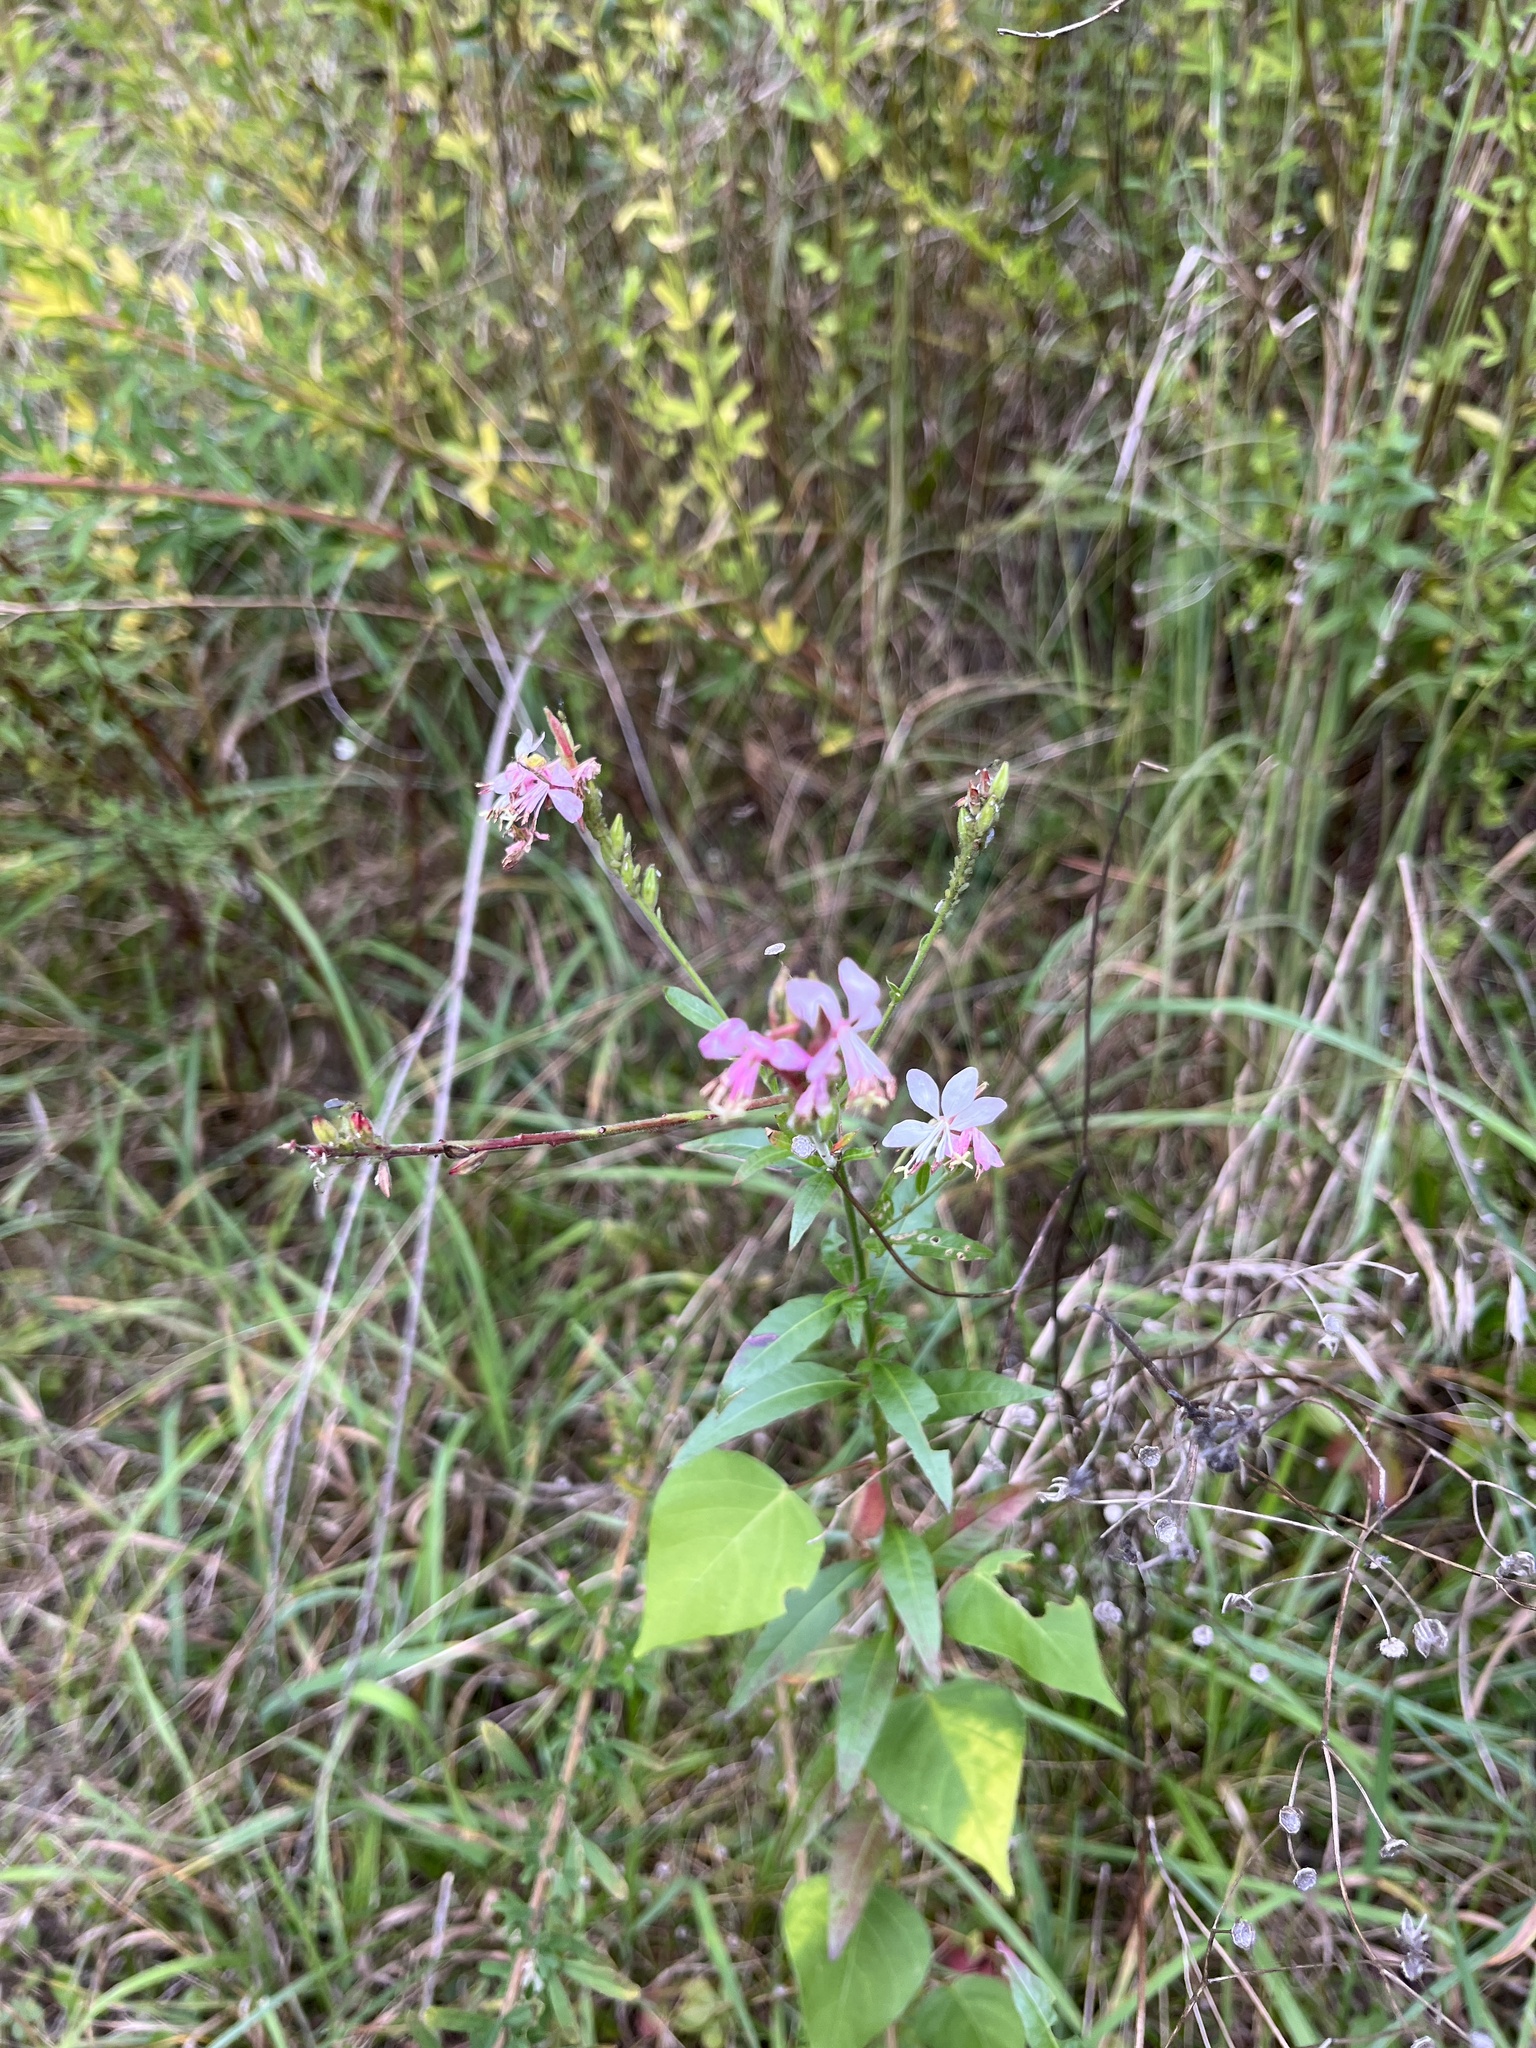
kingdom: Plantae
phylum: Tracheophyta
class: Magnoliopsida
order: Myrtales
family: Onagraceae
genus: Oenothera
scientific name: Oenothera gaura
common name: Biennial beeblossom
